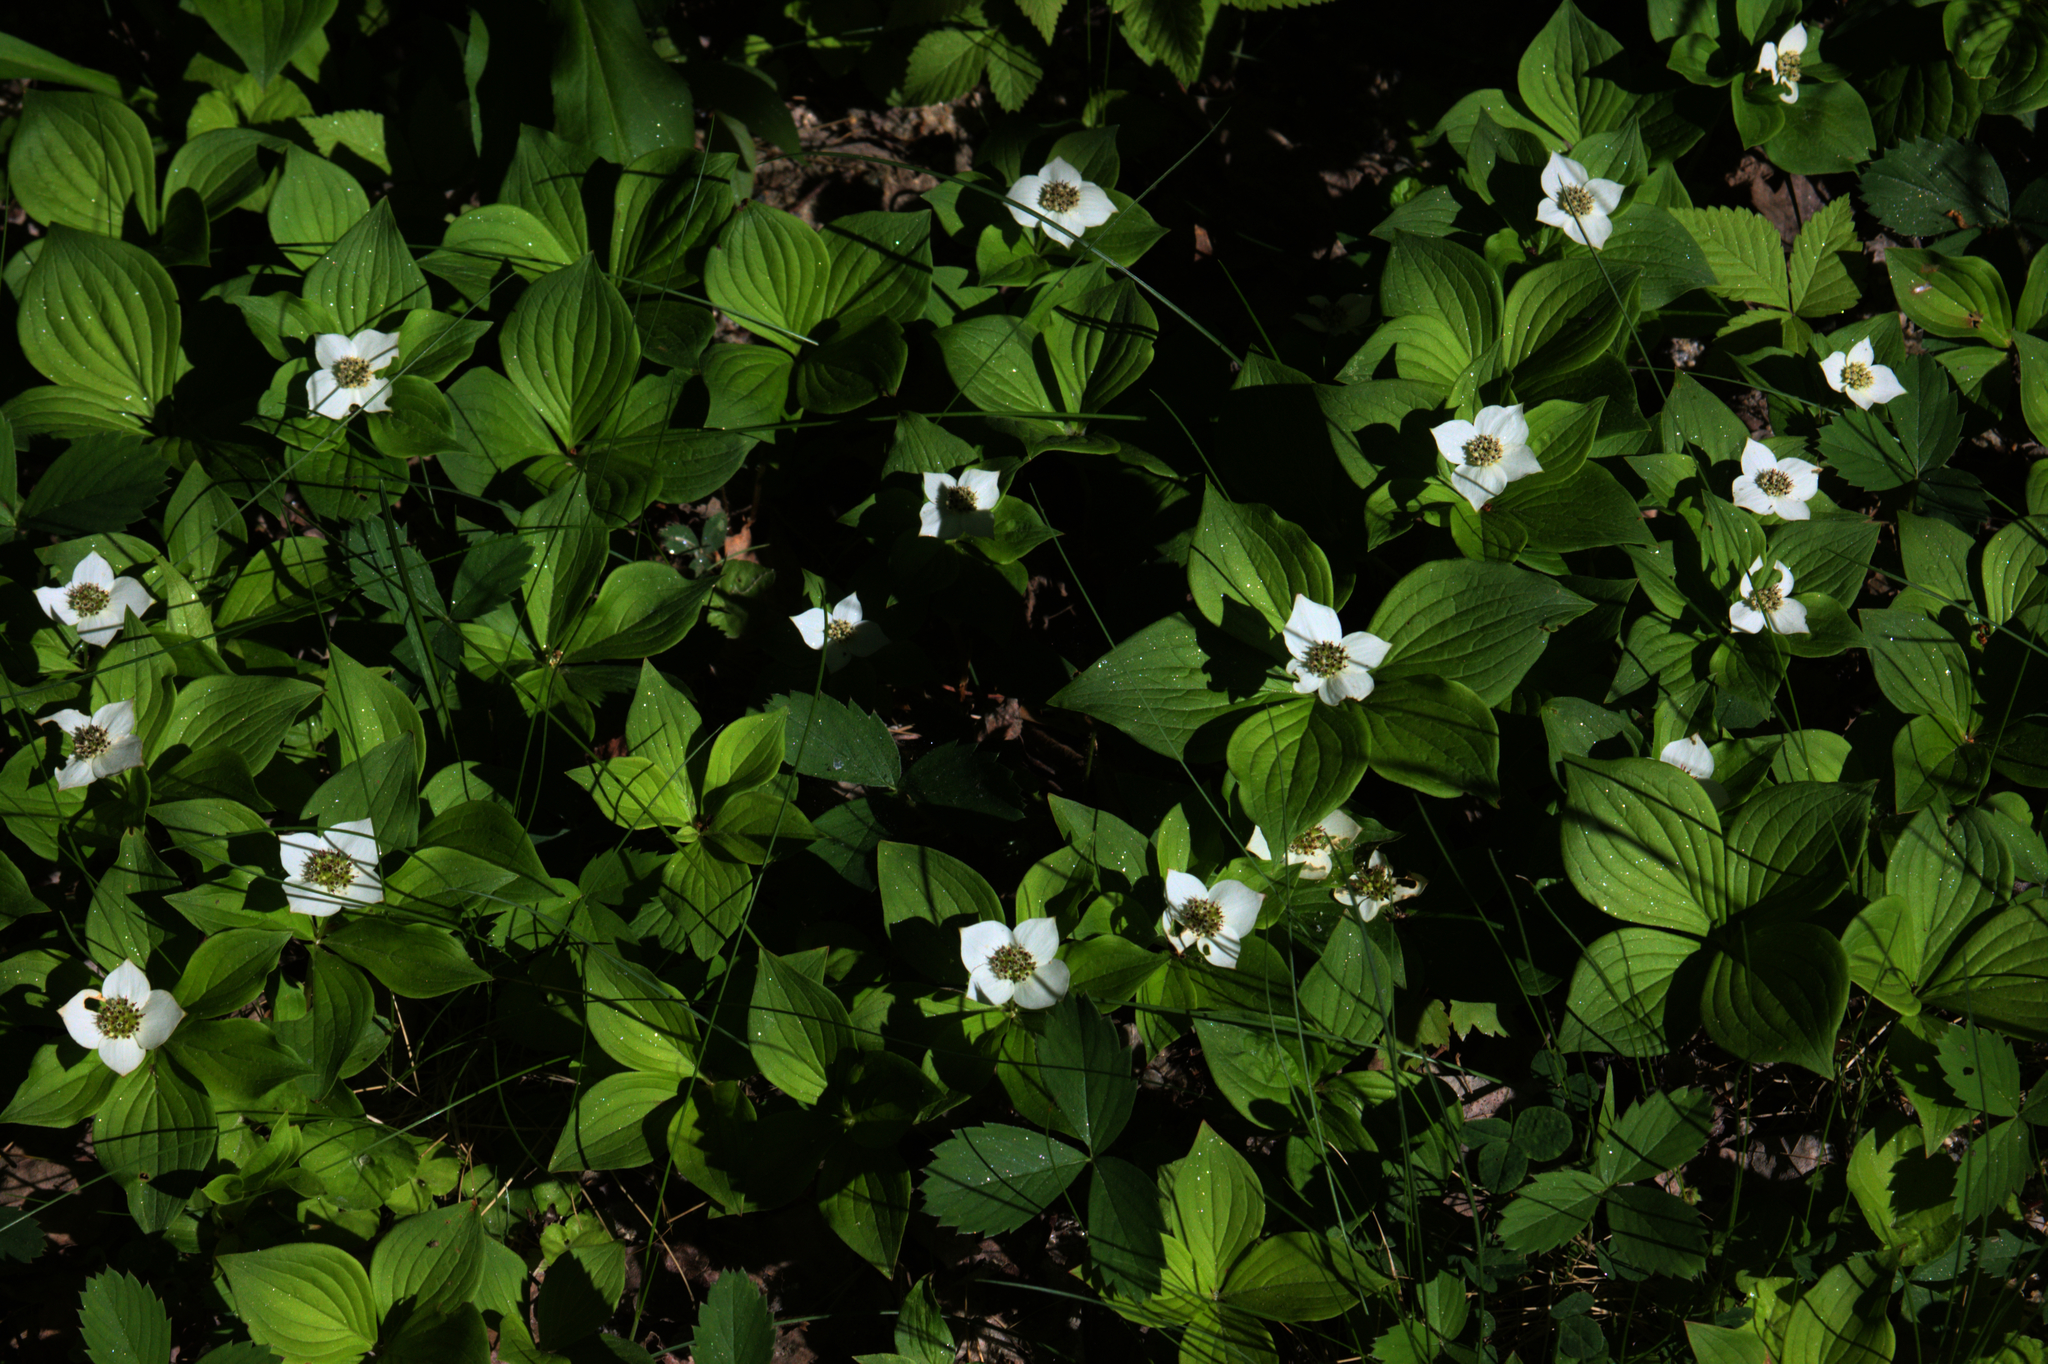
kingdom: Plantae
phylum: Tracheophyta
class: Magnoliopsida
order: Cornales
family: Cornaceae
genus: Cornus
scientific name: Cornus canadensis
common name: Creeping dogwood
